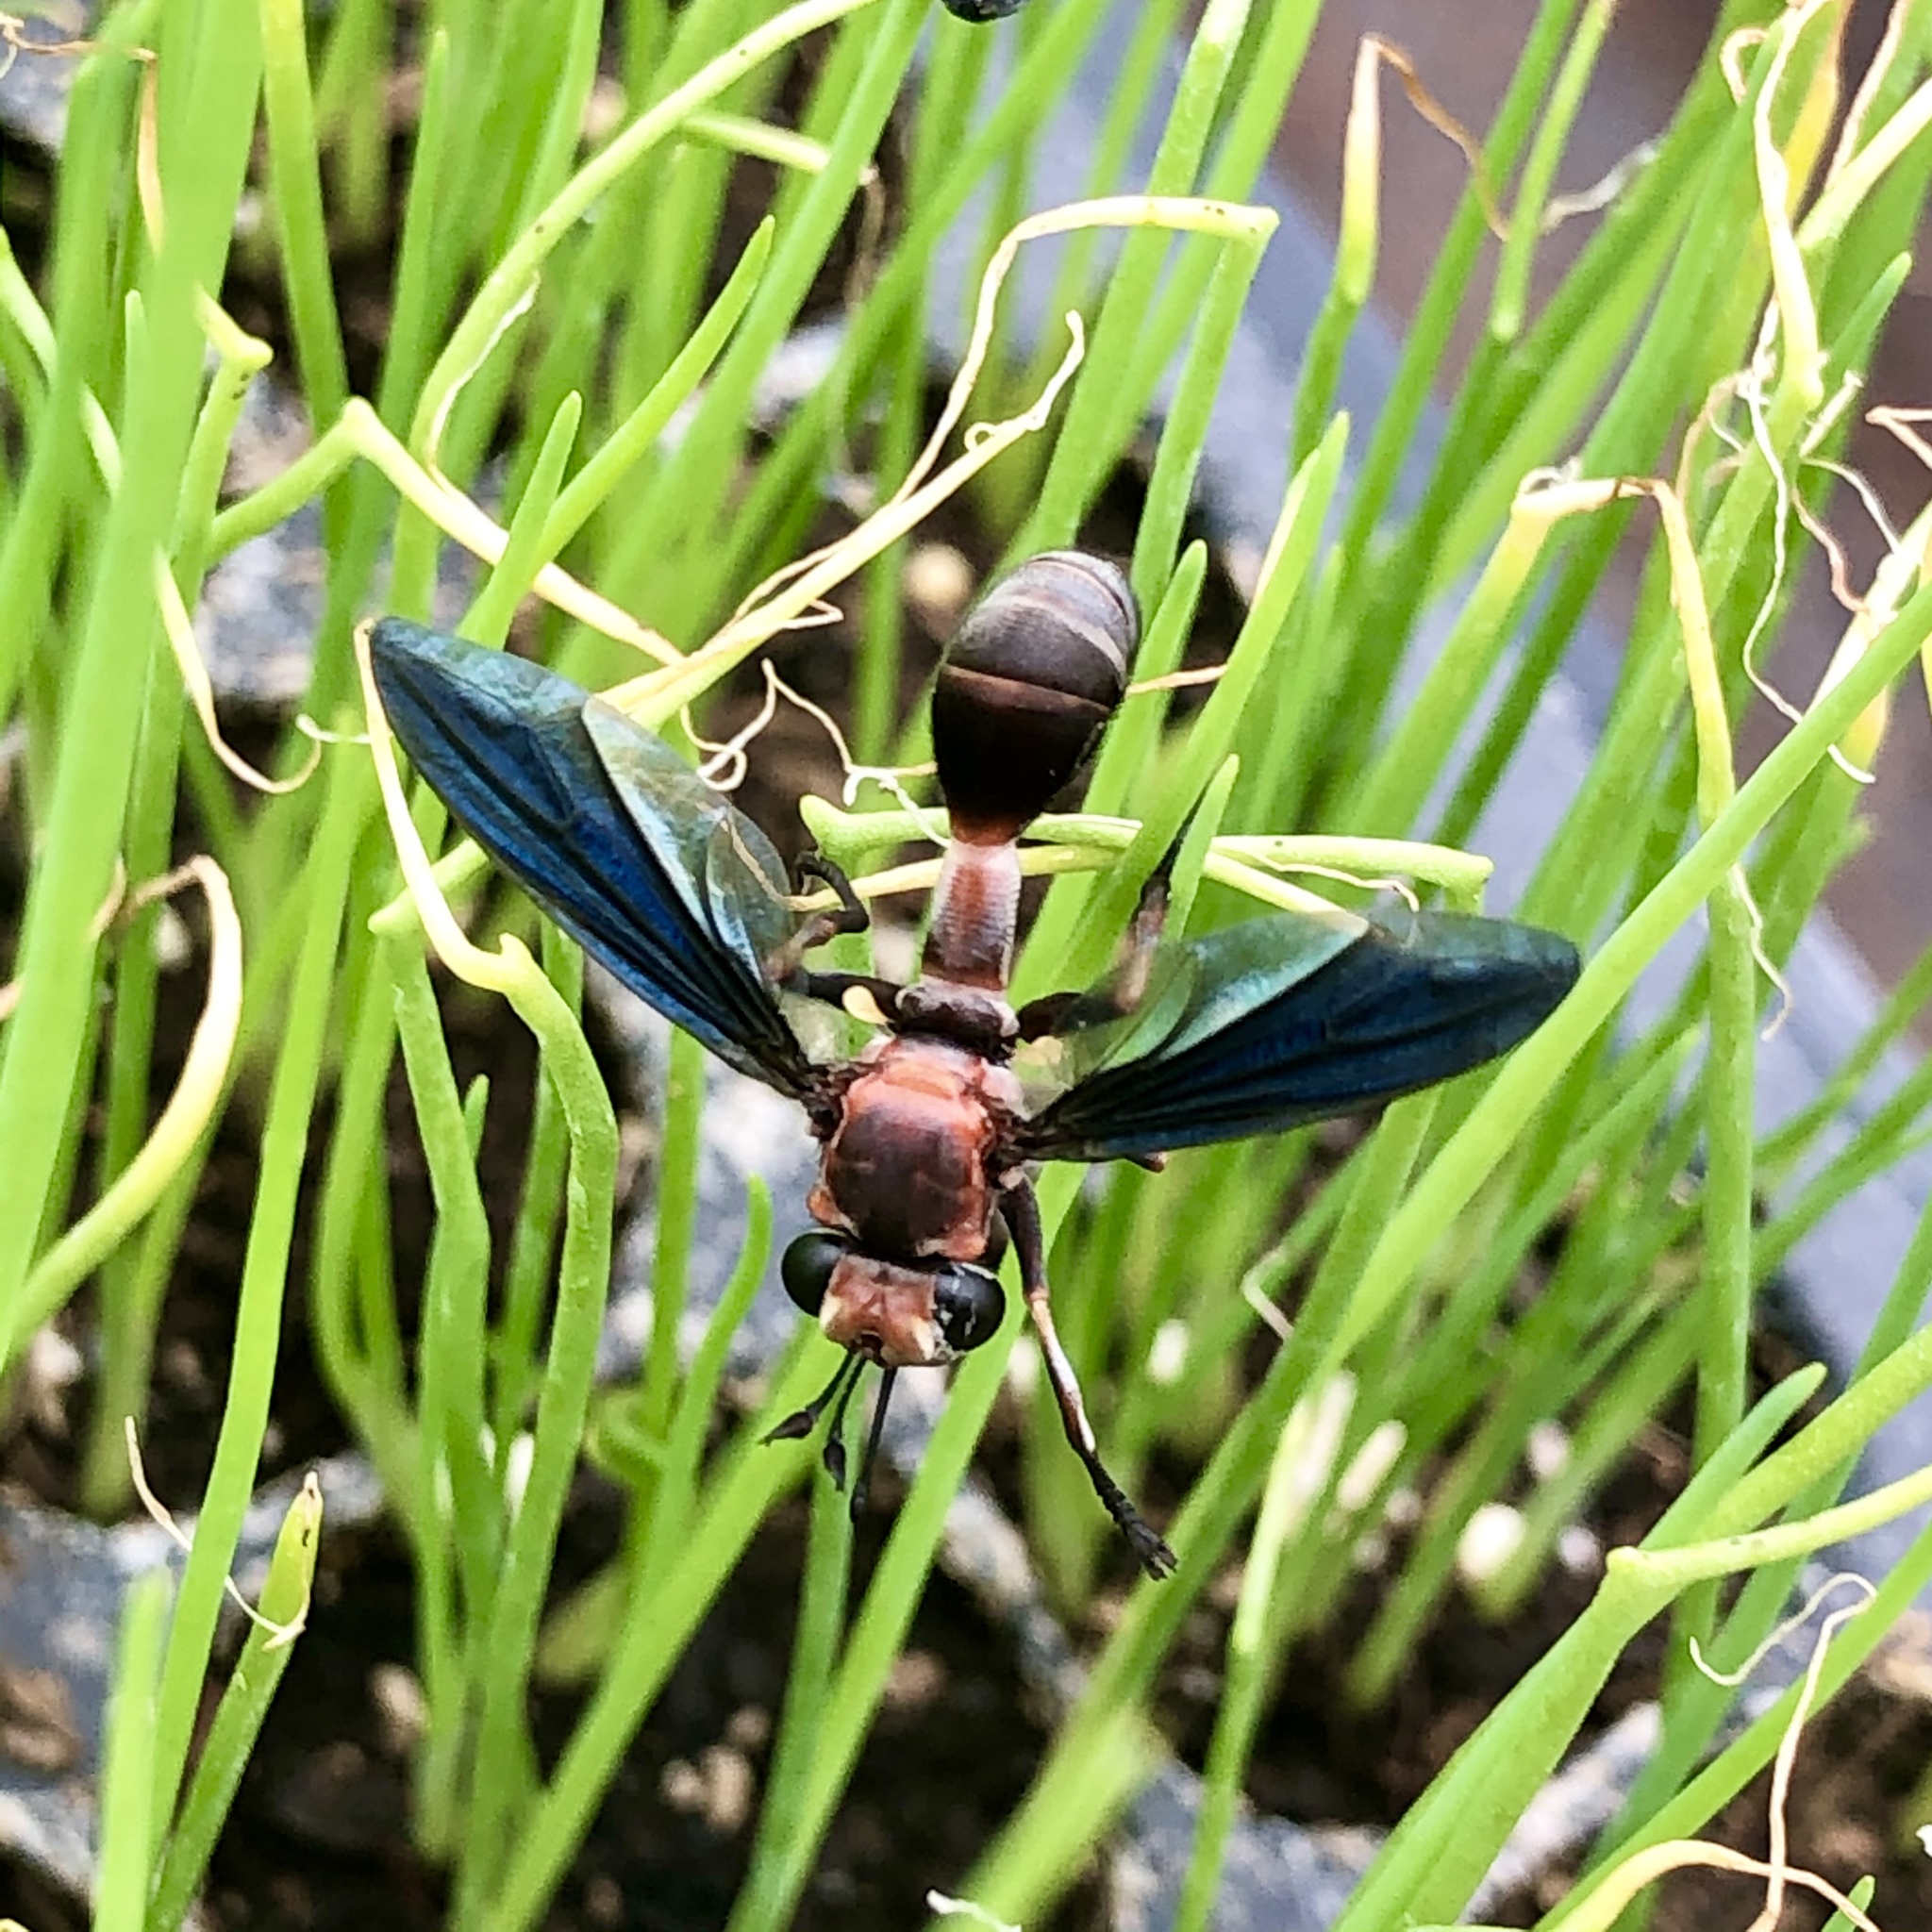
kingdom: Animalia
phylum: Arthropoda
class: Insecta
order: Diptera
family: Conopidae
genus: Physocephala
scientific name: Physocephala floridana
